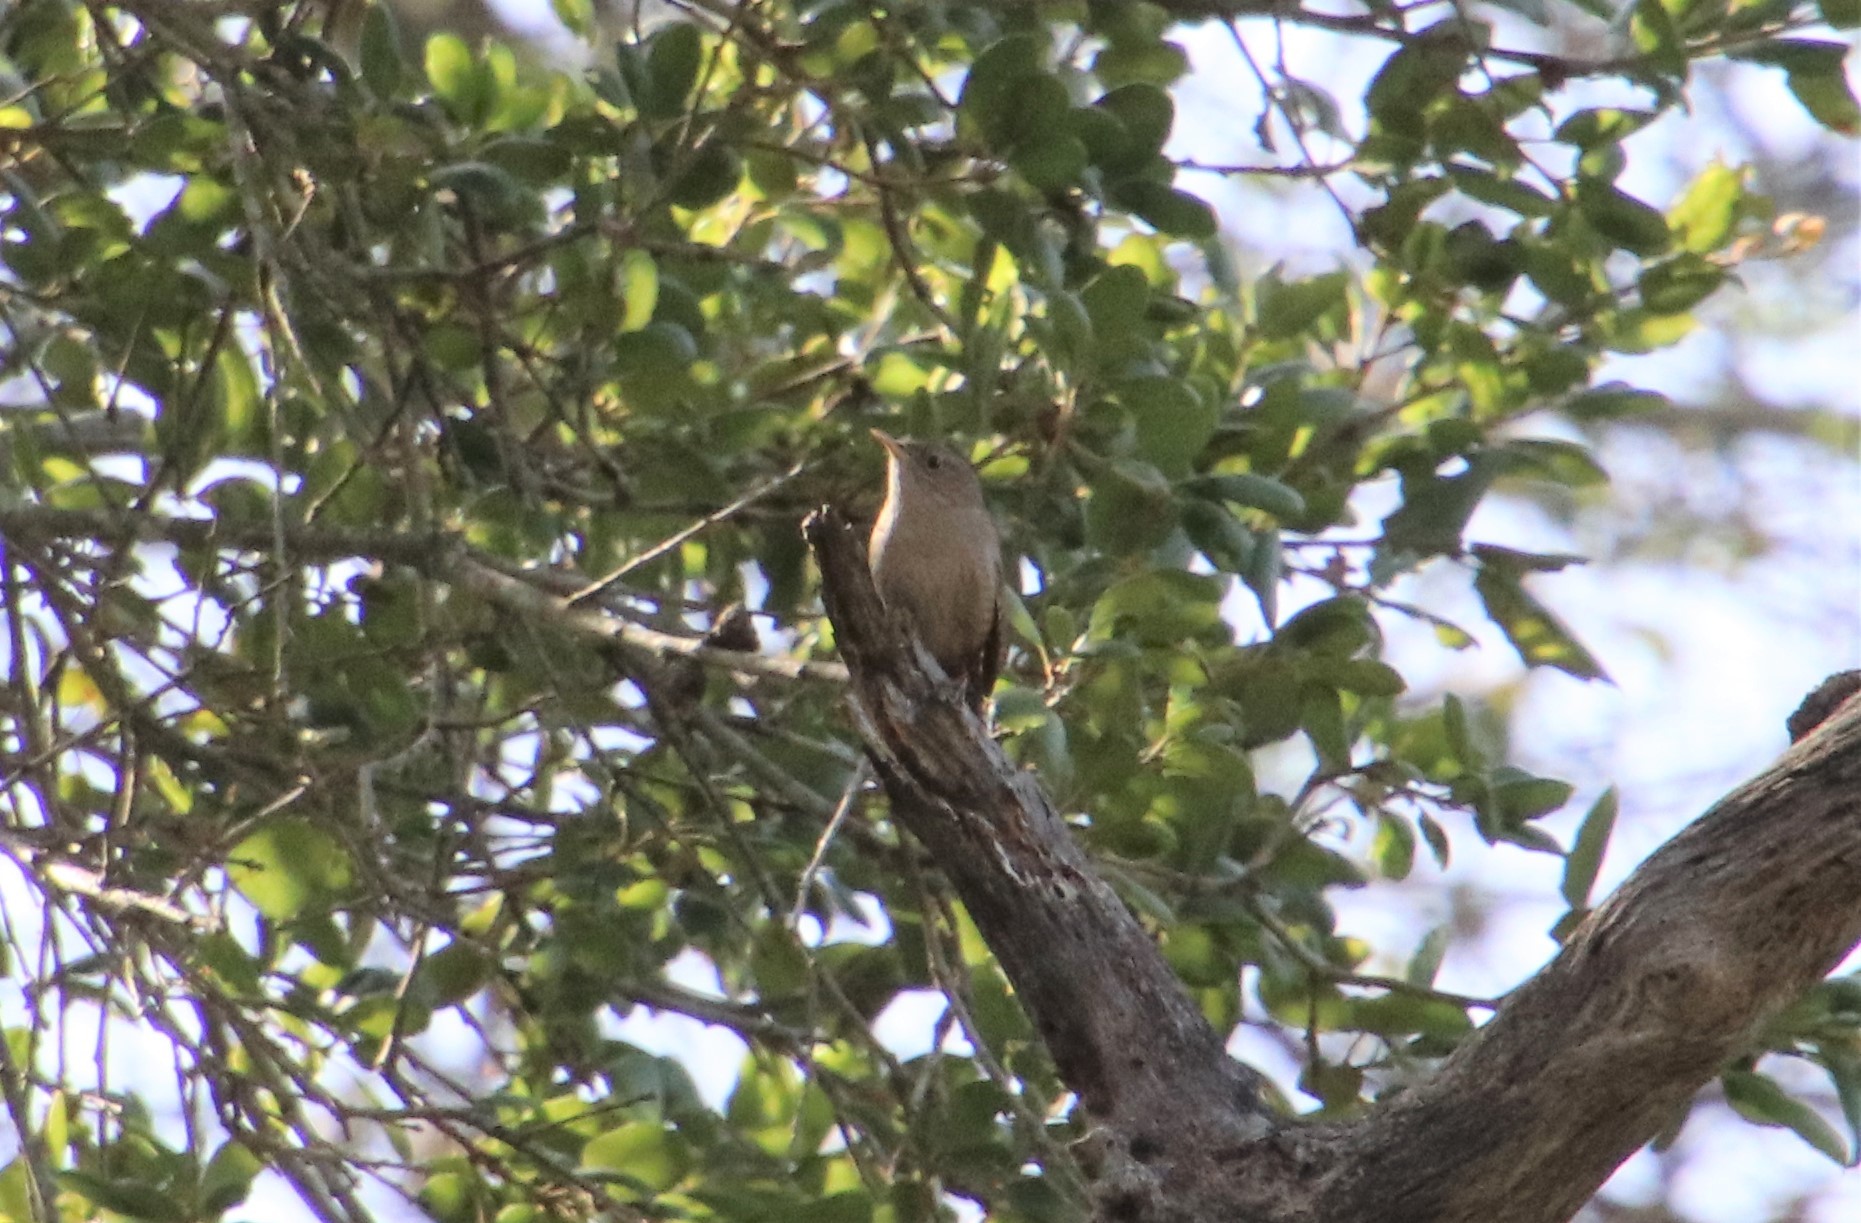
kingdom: Animalia
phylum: Chordata
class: Aves
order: Passeriformes
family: Troglodytidae
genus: Troglodytes
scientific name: Troglodytes aedon
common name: House wren
